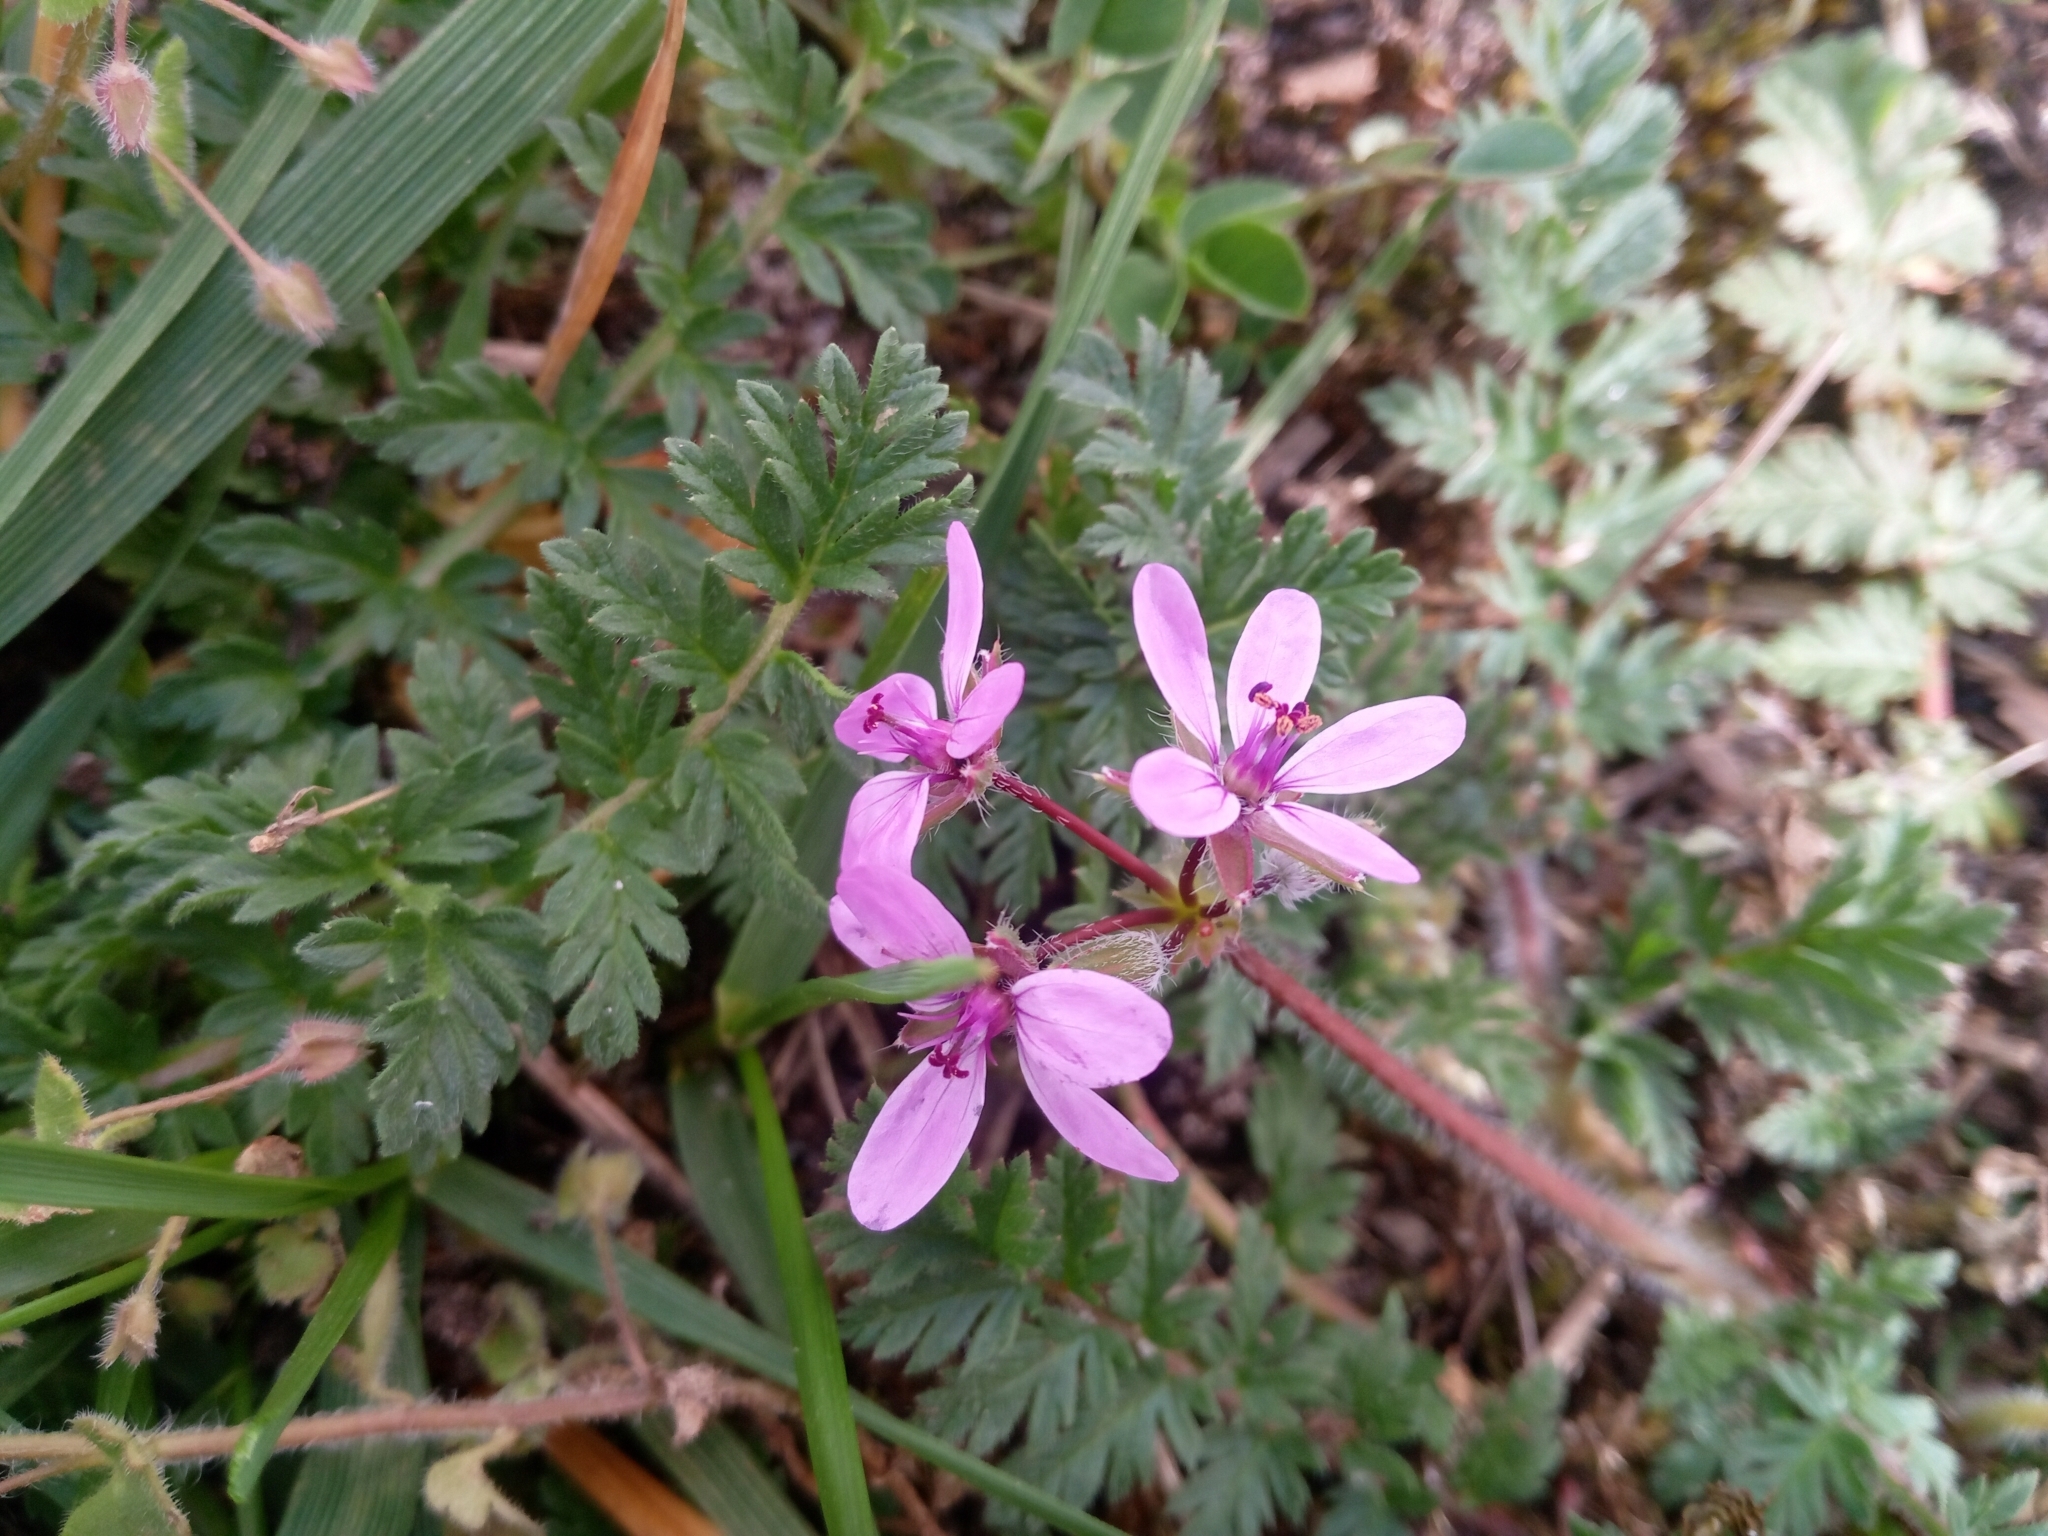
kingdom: Plantae
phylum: Tracheophyta
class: Magnoliopsida
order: Geraniales
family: Geraniaceae
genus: Erodium
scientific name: Erodium cicutarium
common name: Common stork's-bill
